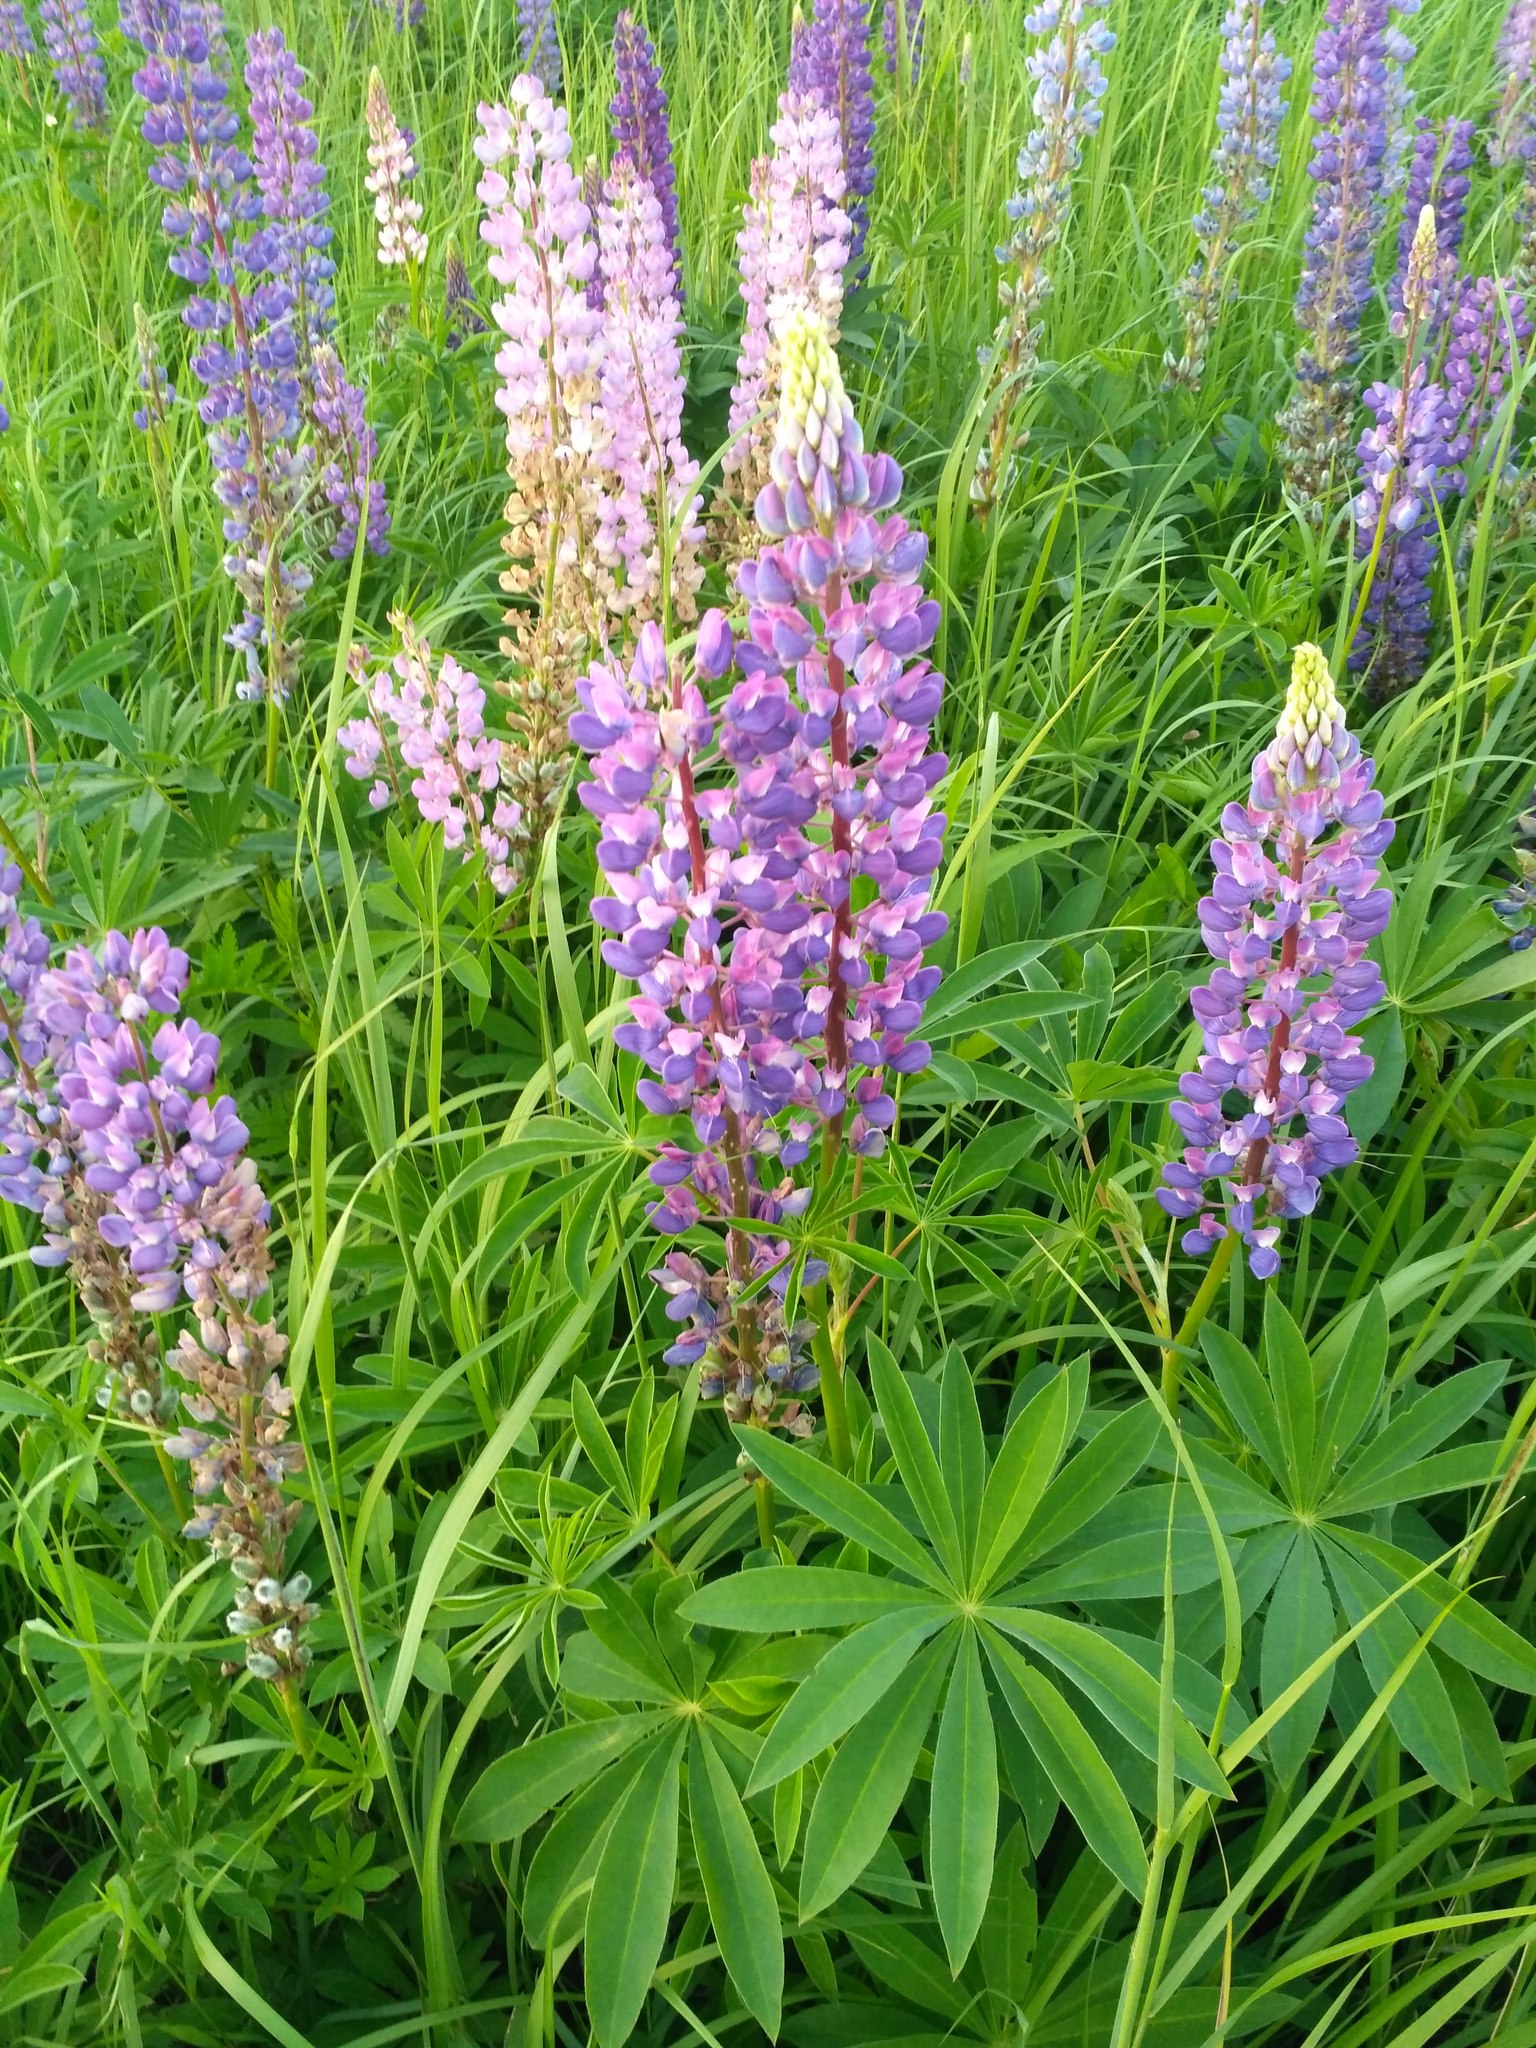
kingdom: Plantae
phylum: Tracheophyta
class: Magnoliopsida
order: Fabales
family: Fabaceae
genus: Lupinus
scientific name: Lupinus polyphyllus
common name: Garden lupin
